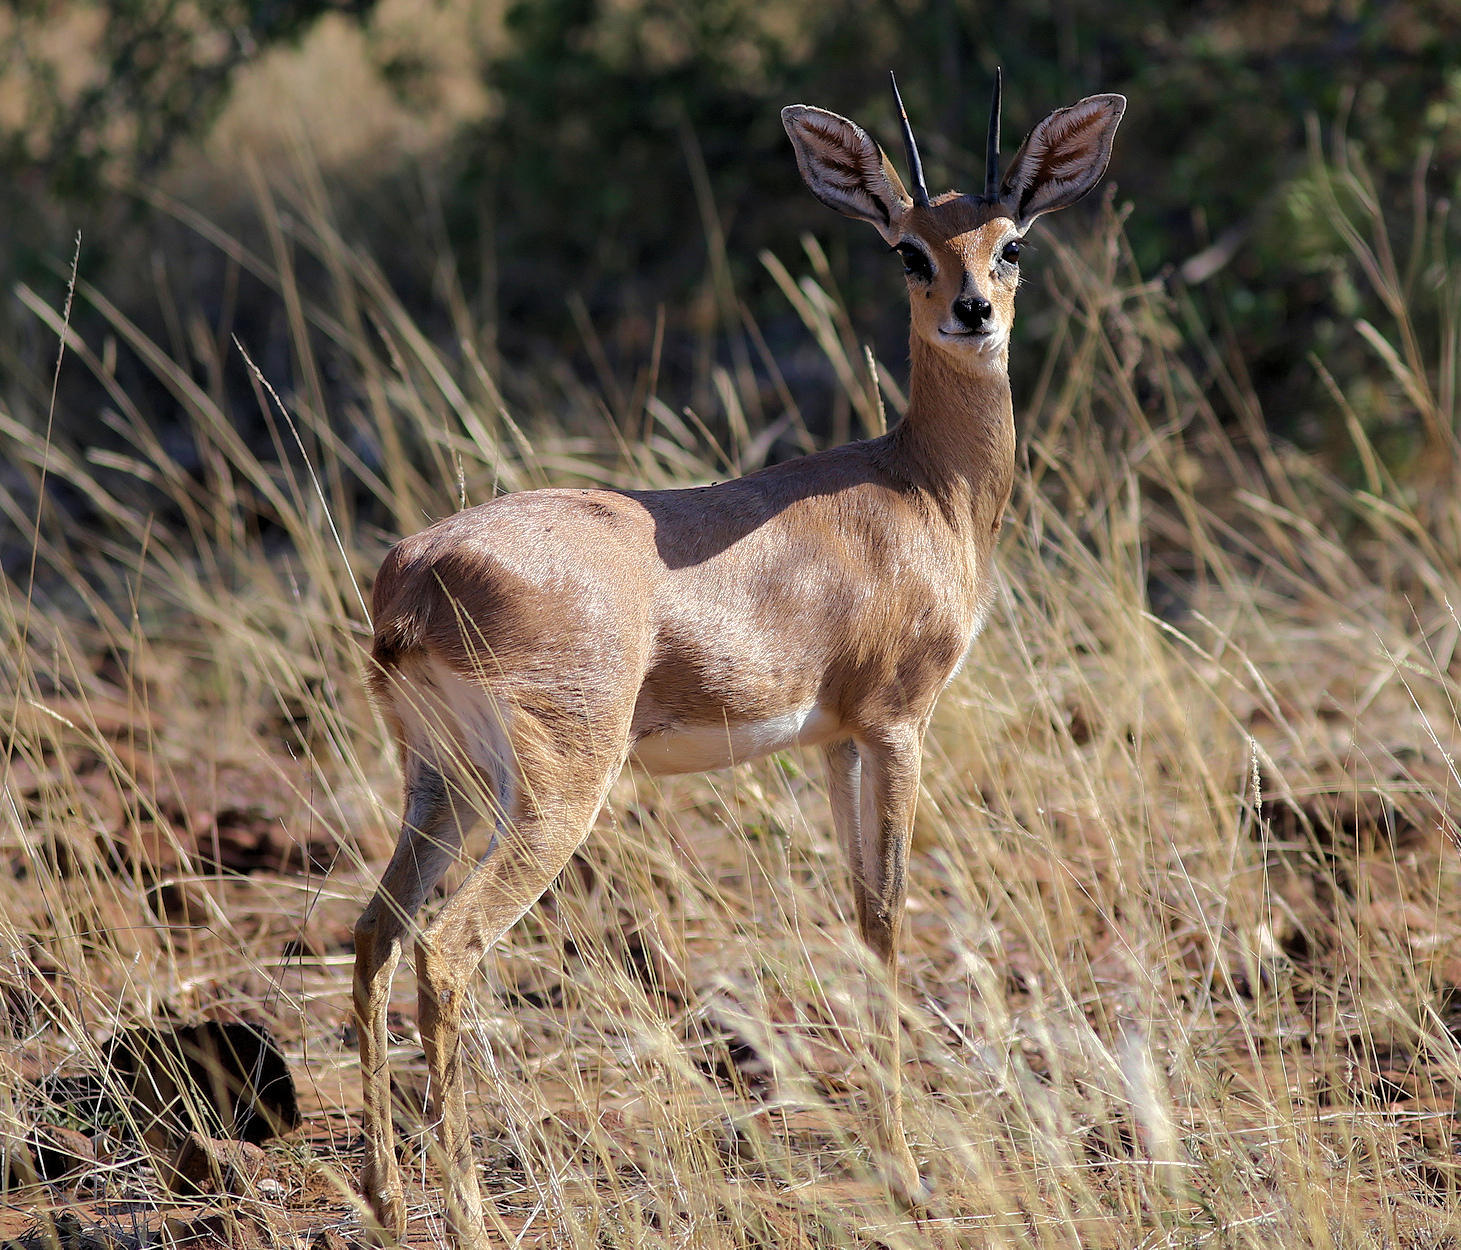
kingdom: Animalia
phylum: Chordata
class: Mammalia
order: Artiodactyla
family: Bovidae
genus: Raphicerus
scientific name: Raphicerus campestris
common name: Steenbok
